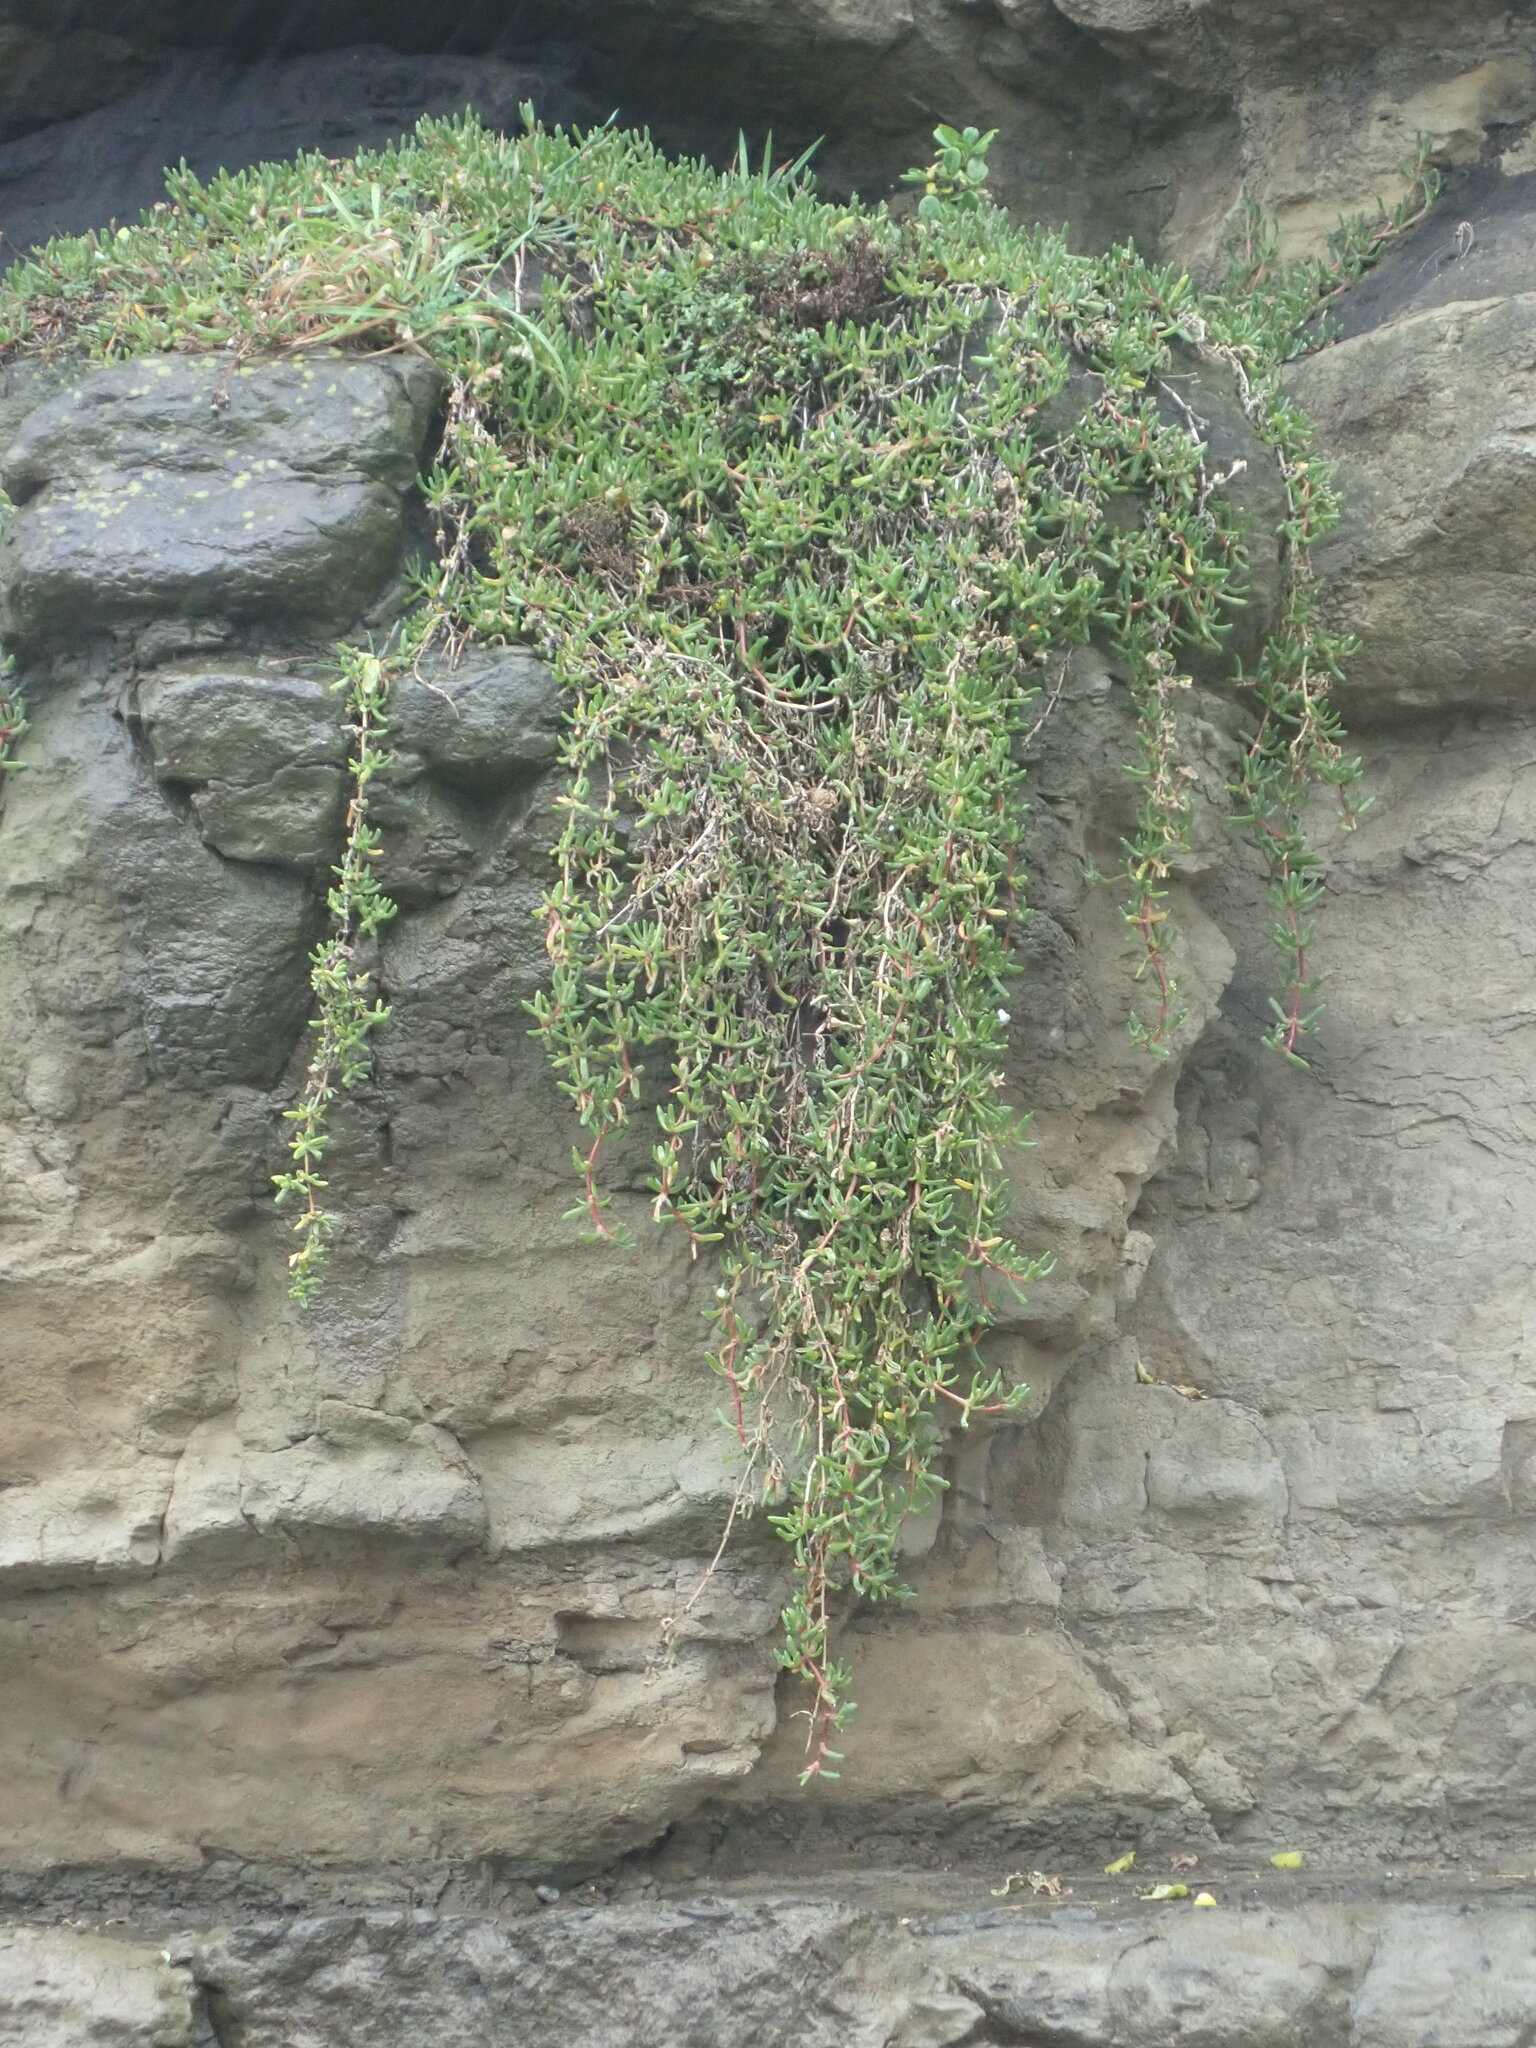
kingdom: Plantae
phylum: Tracheophyta
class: Magnoliopsida
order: Caryophyllales
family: Aizoaceae
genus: Disphyma
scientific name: Disphyma australe
